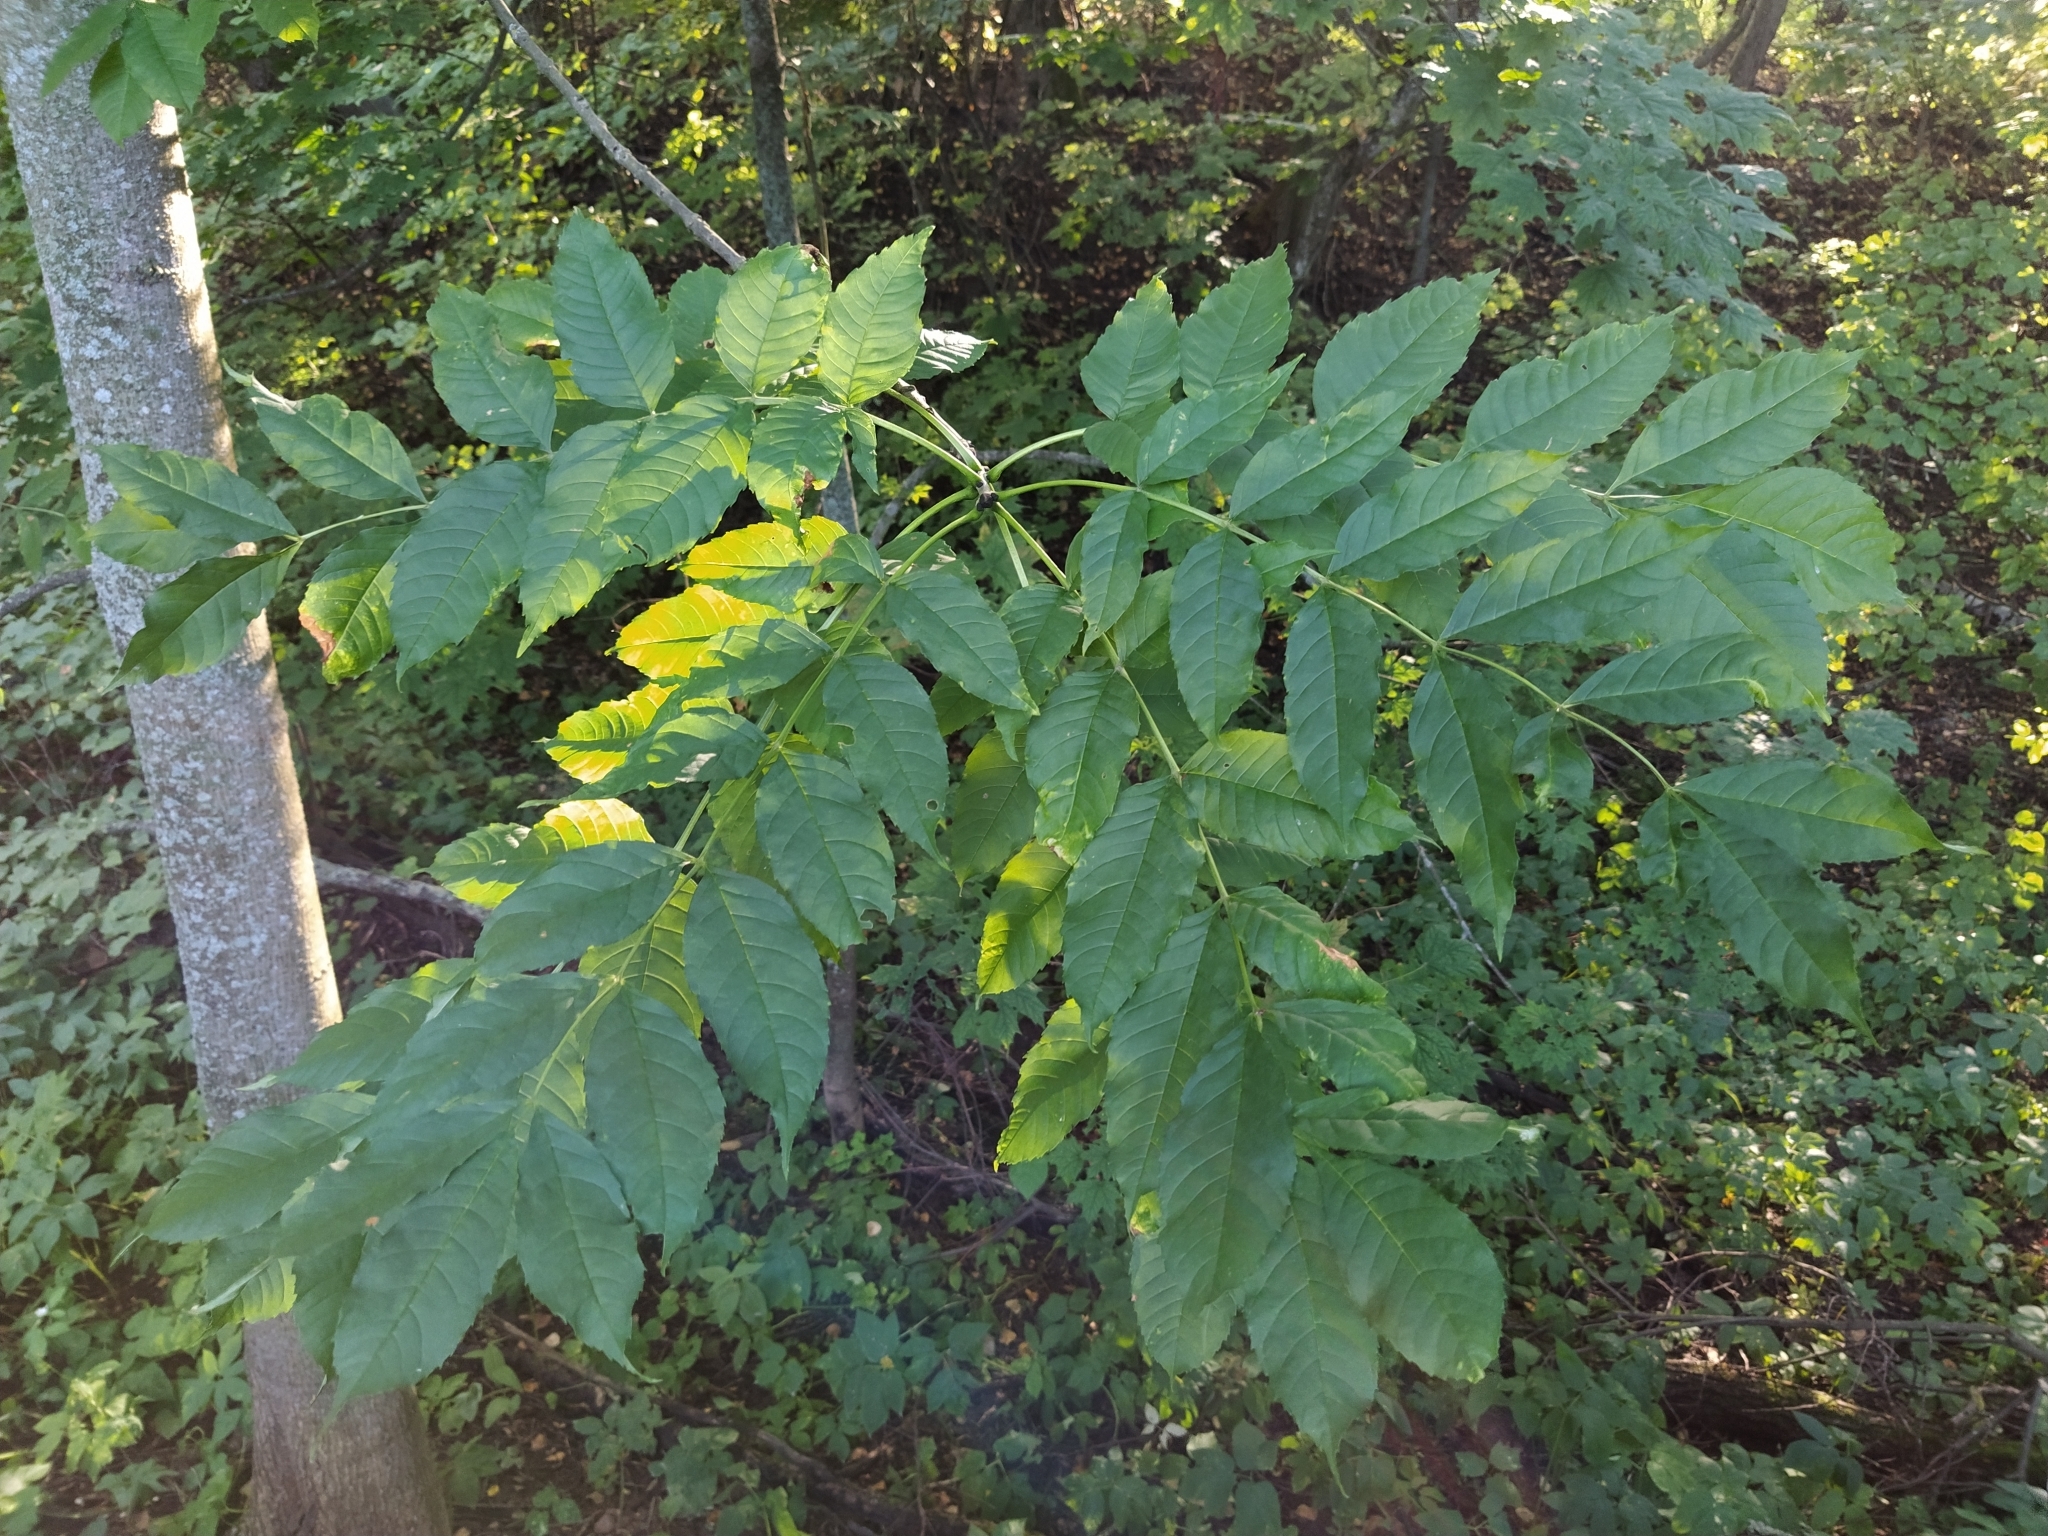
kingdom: Plantae
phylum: Tracheophyta
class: Magnoliopsida
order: Lamiales
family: Oleaceae
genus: Fraxinus
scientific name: Fraxinus excelsior
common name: European ash
